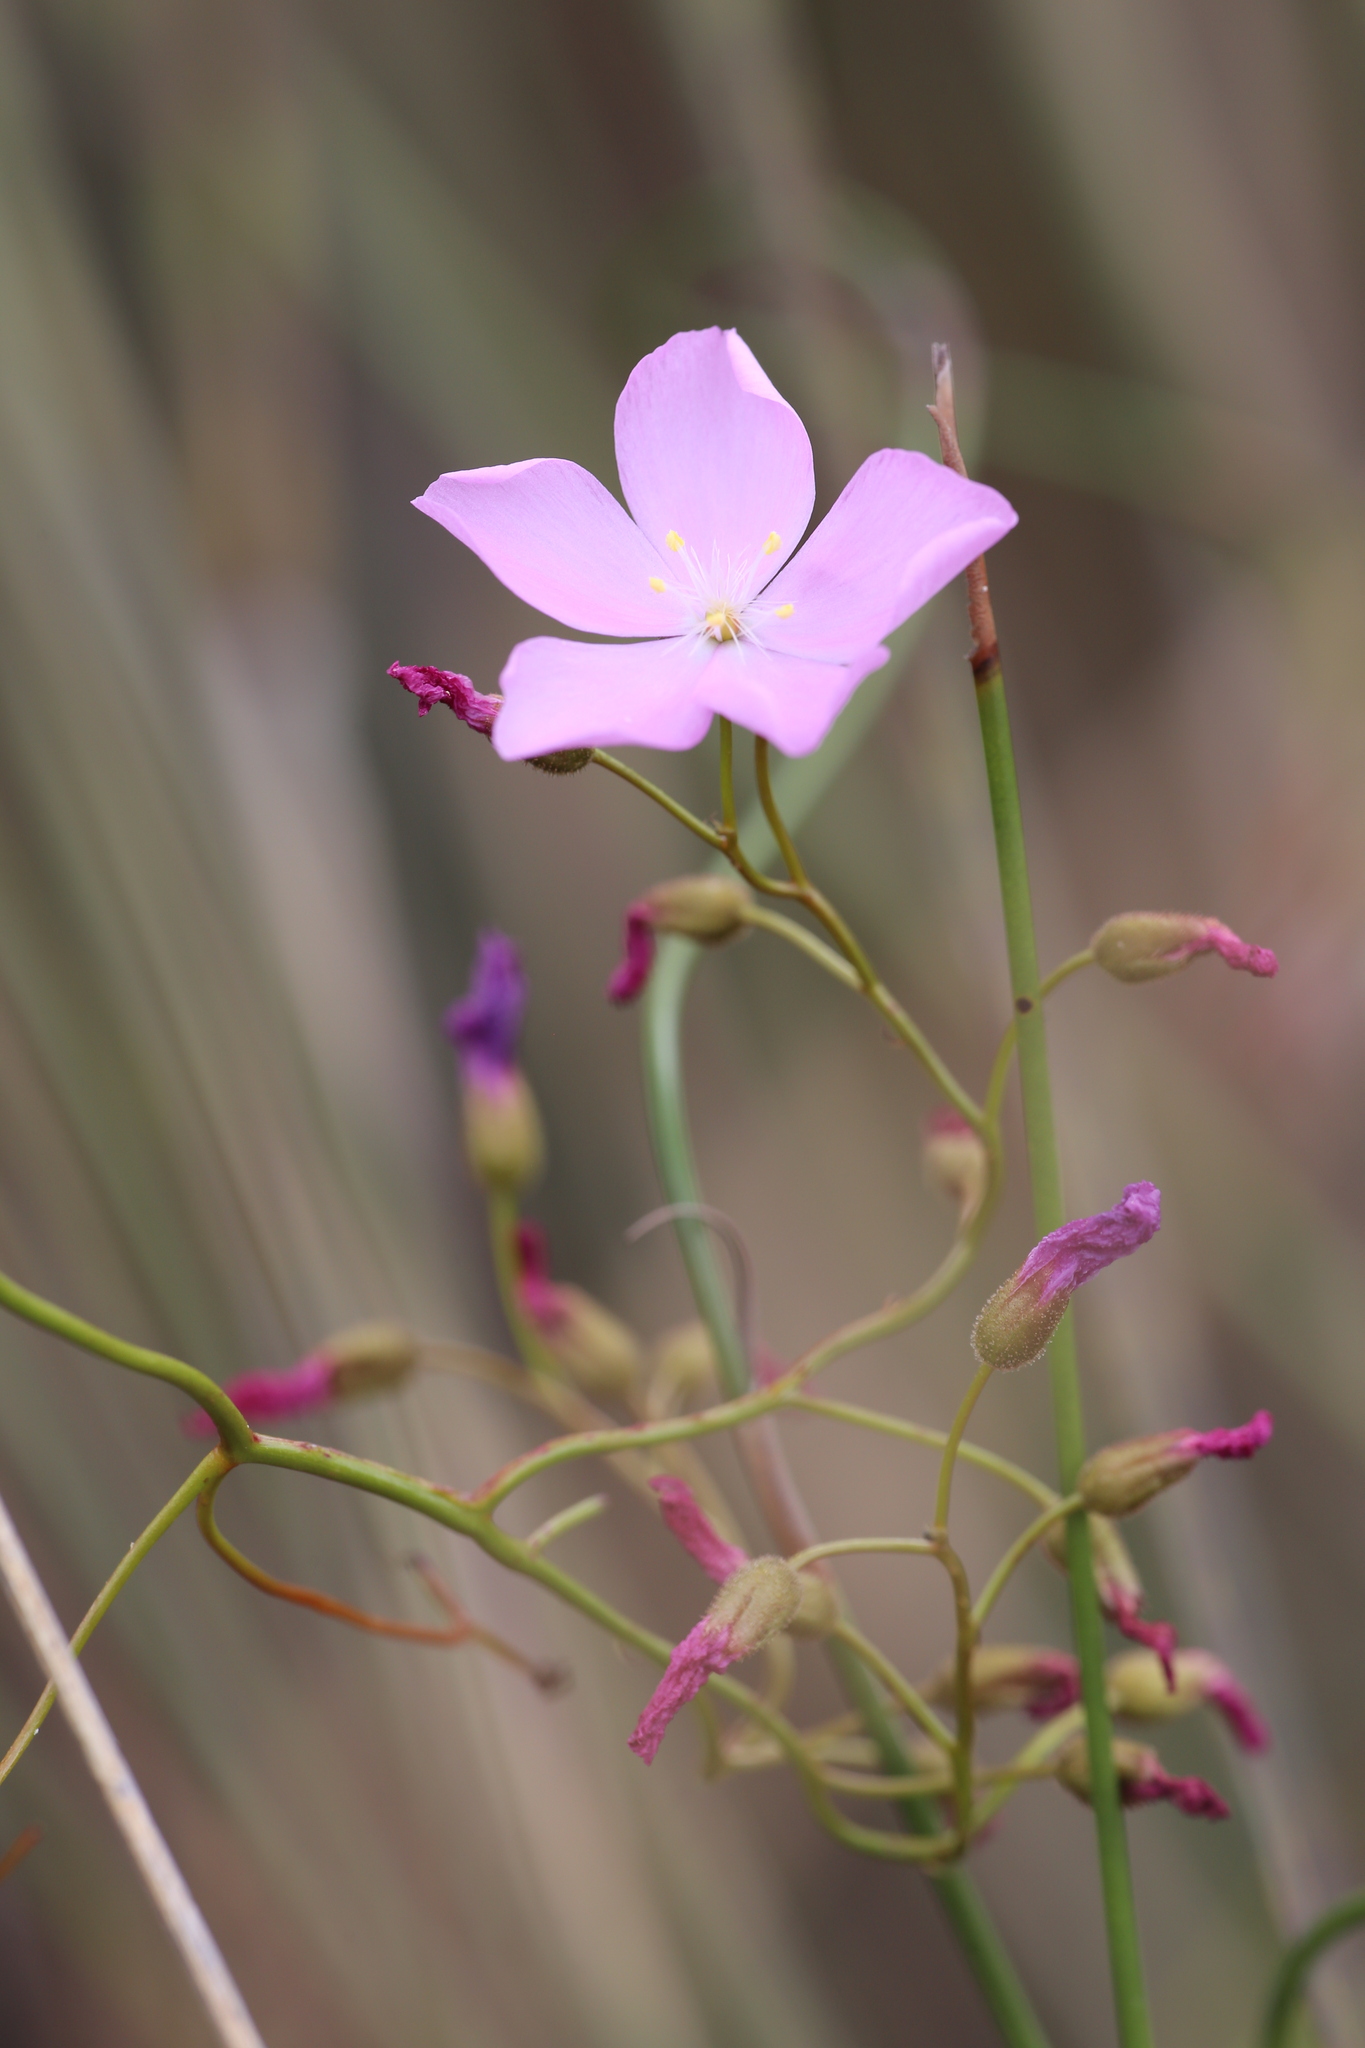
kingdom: Plantae
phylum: Tracheophyta
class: Magnoliopsida
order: Caryophyllales
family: Droseraceae
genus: Drosera
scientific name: Drosera
